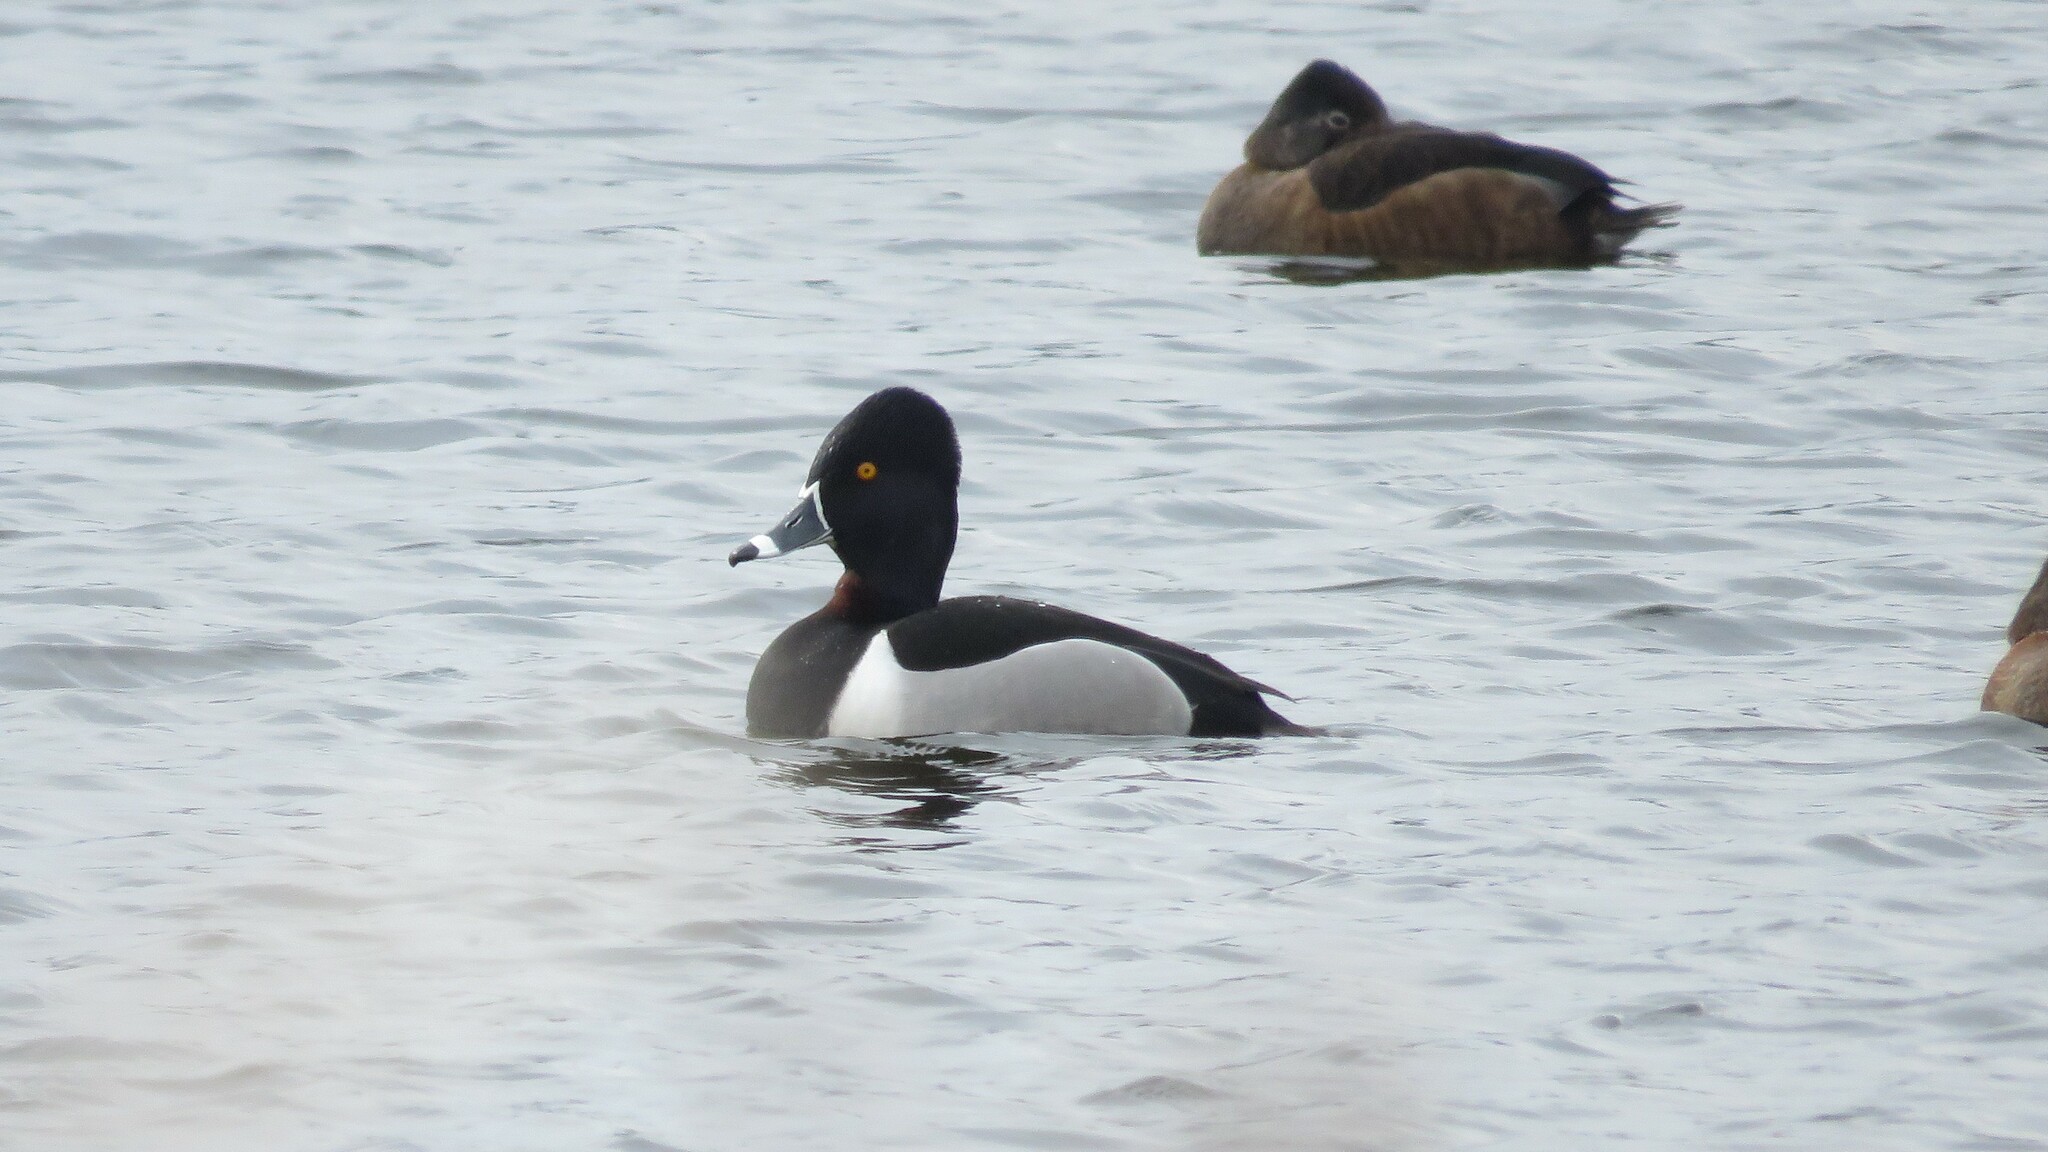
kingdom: Animalia
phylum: Chordata
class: Aves
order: Anseriformes
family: Anatidae
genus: Aythya
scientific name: Aythya collaris
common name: Ring-necked duck
